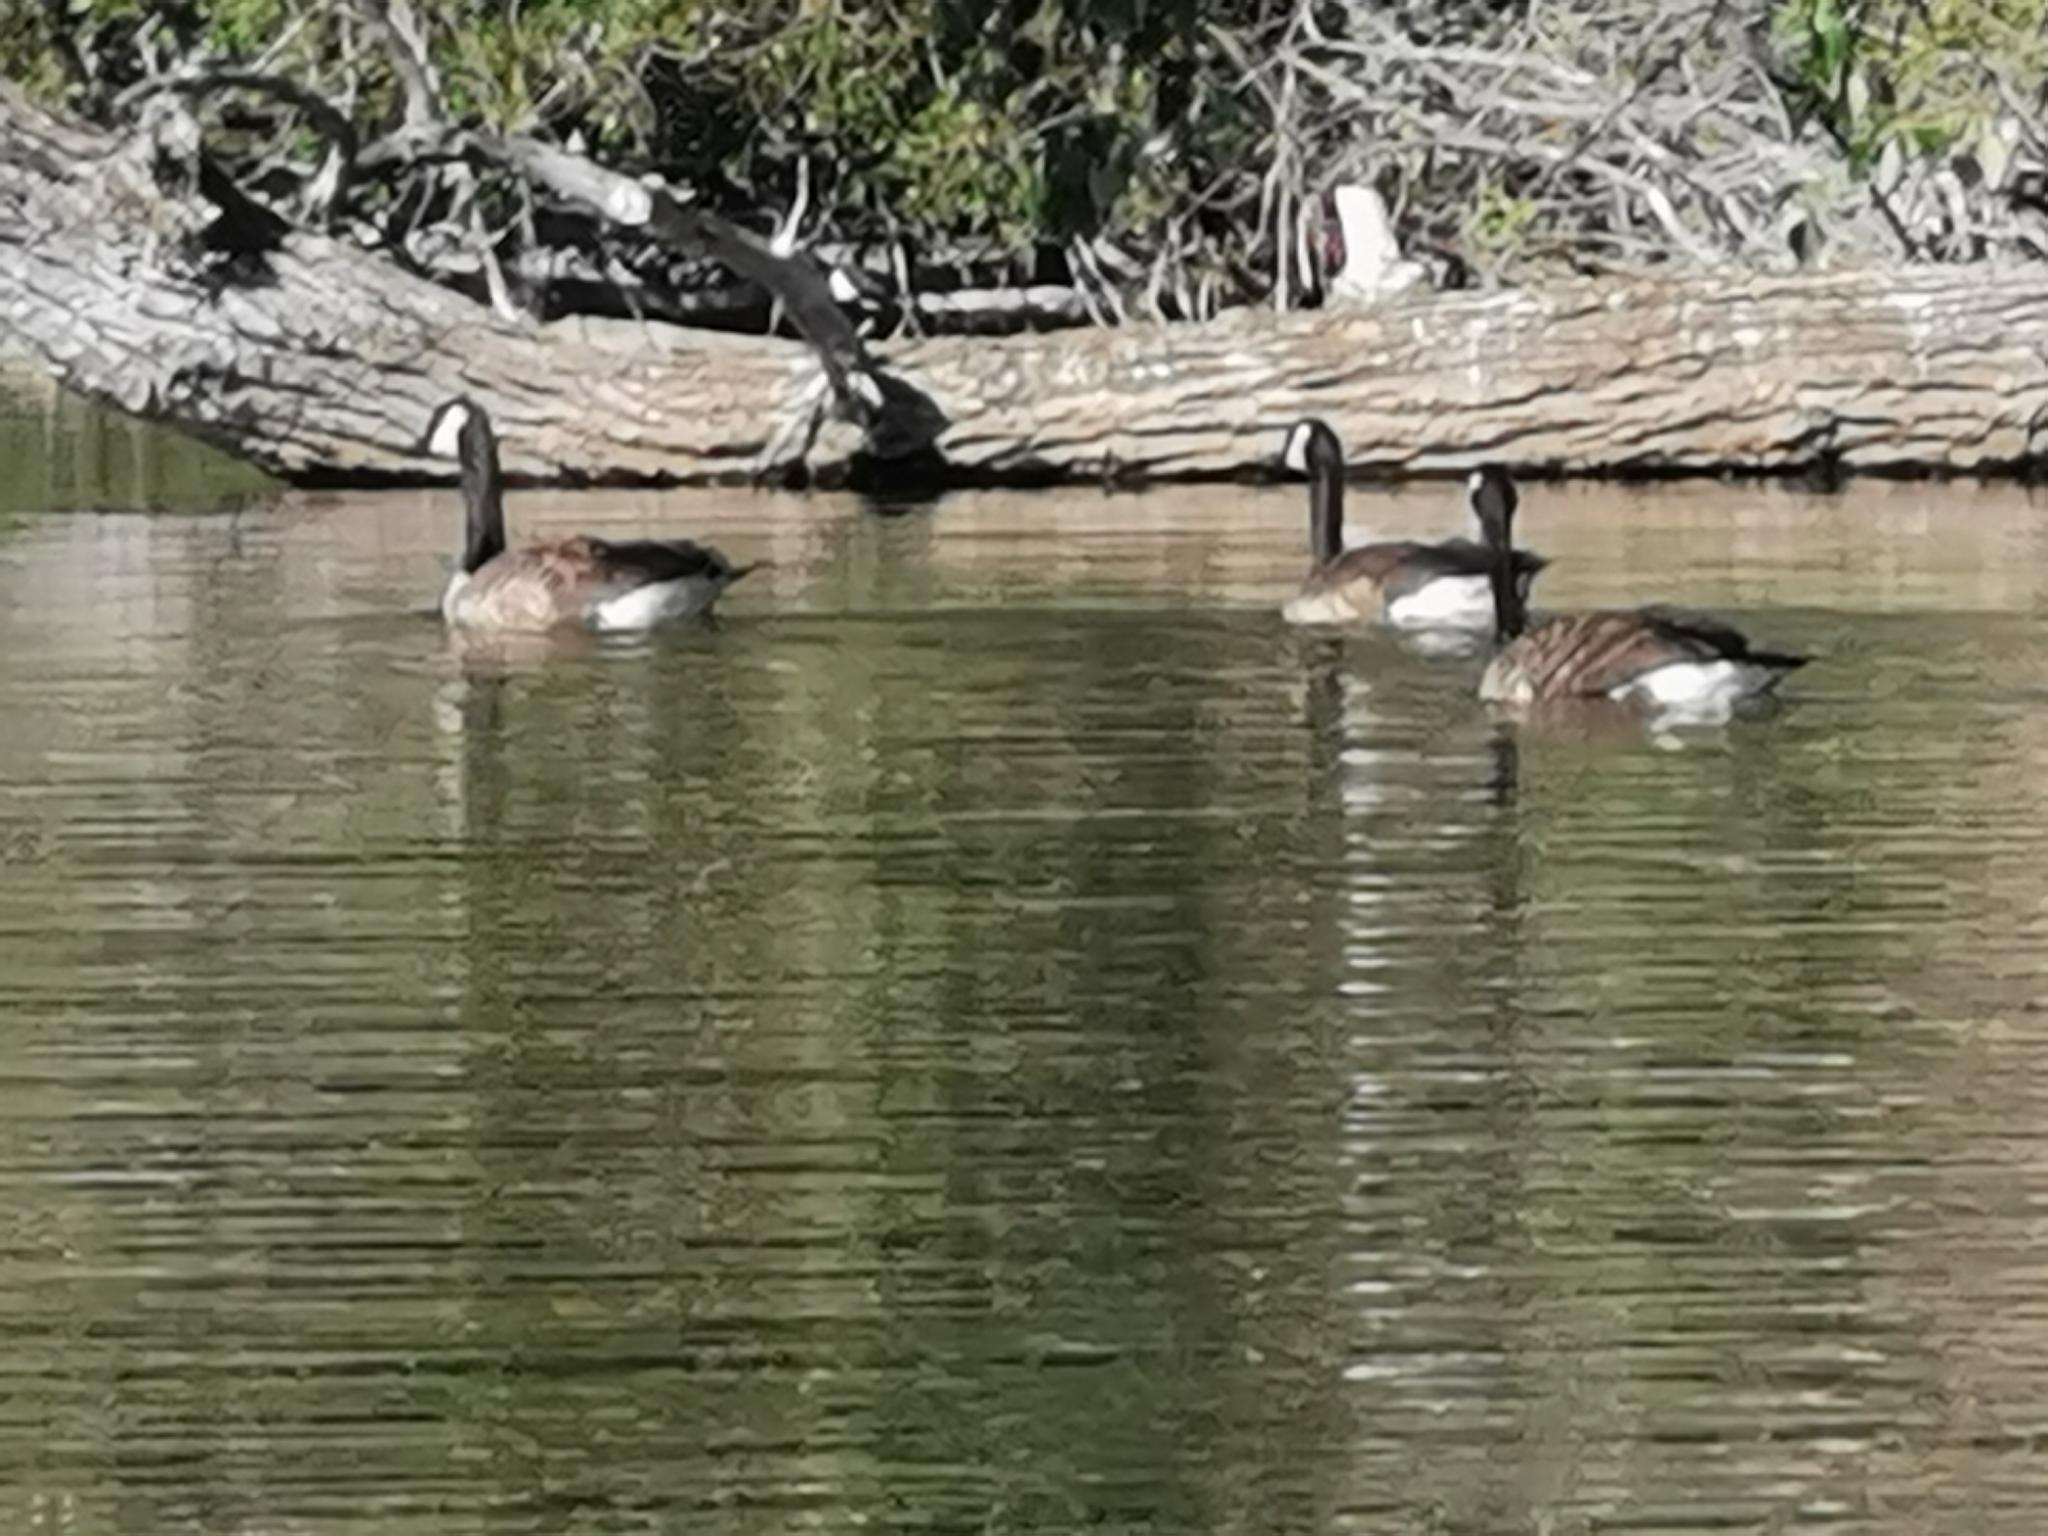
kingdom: Animalia
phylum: Chordata
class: Aves
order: Anseriformes
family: Anatidae
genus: Branta
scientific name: Branta canadensis
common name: Canada goose
